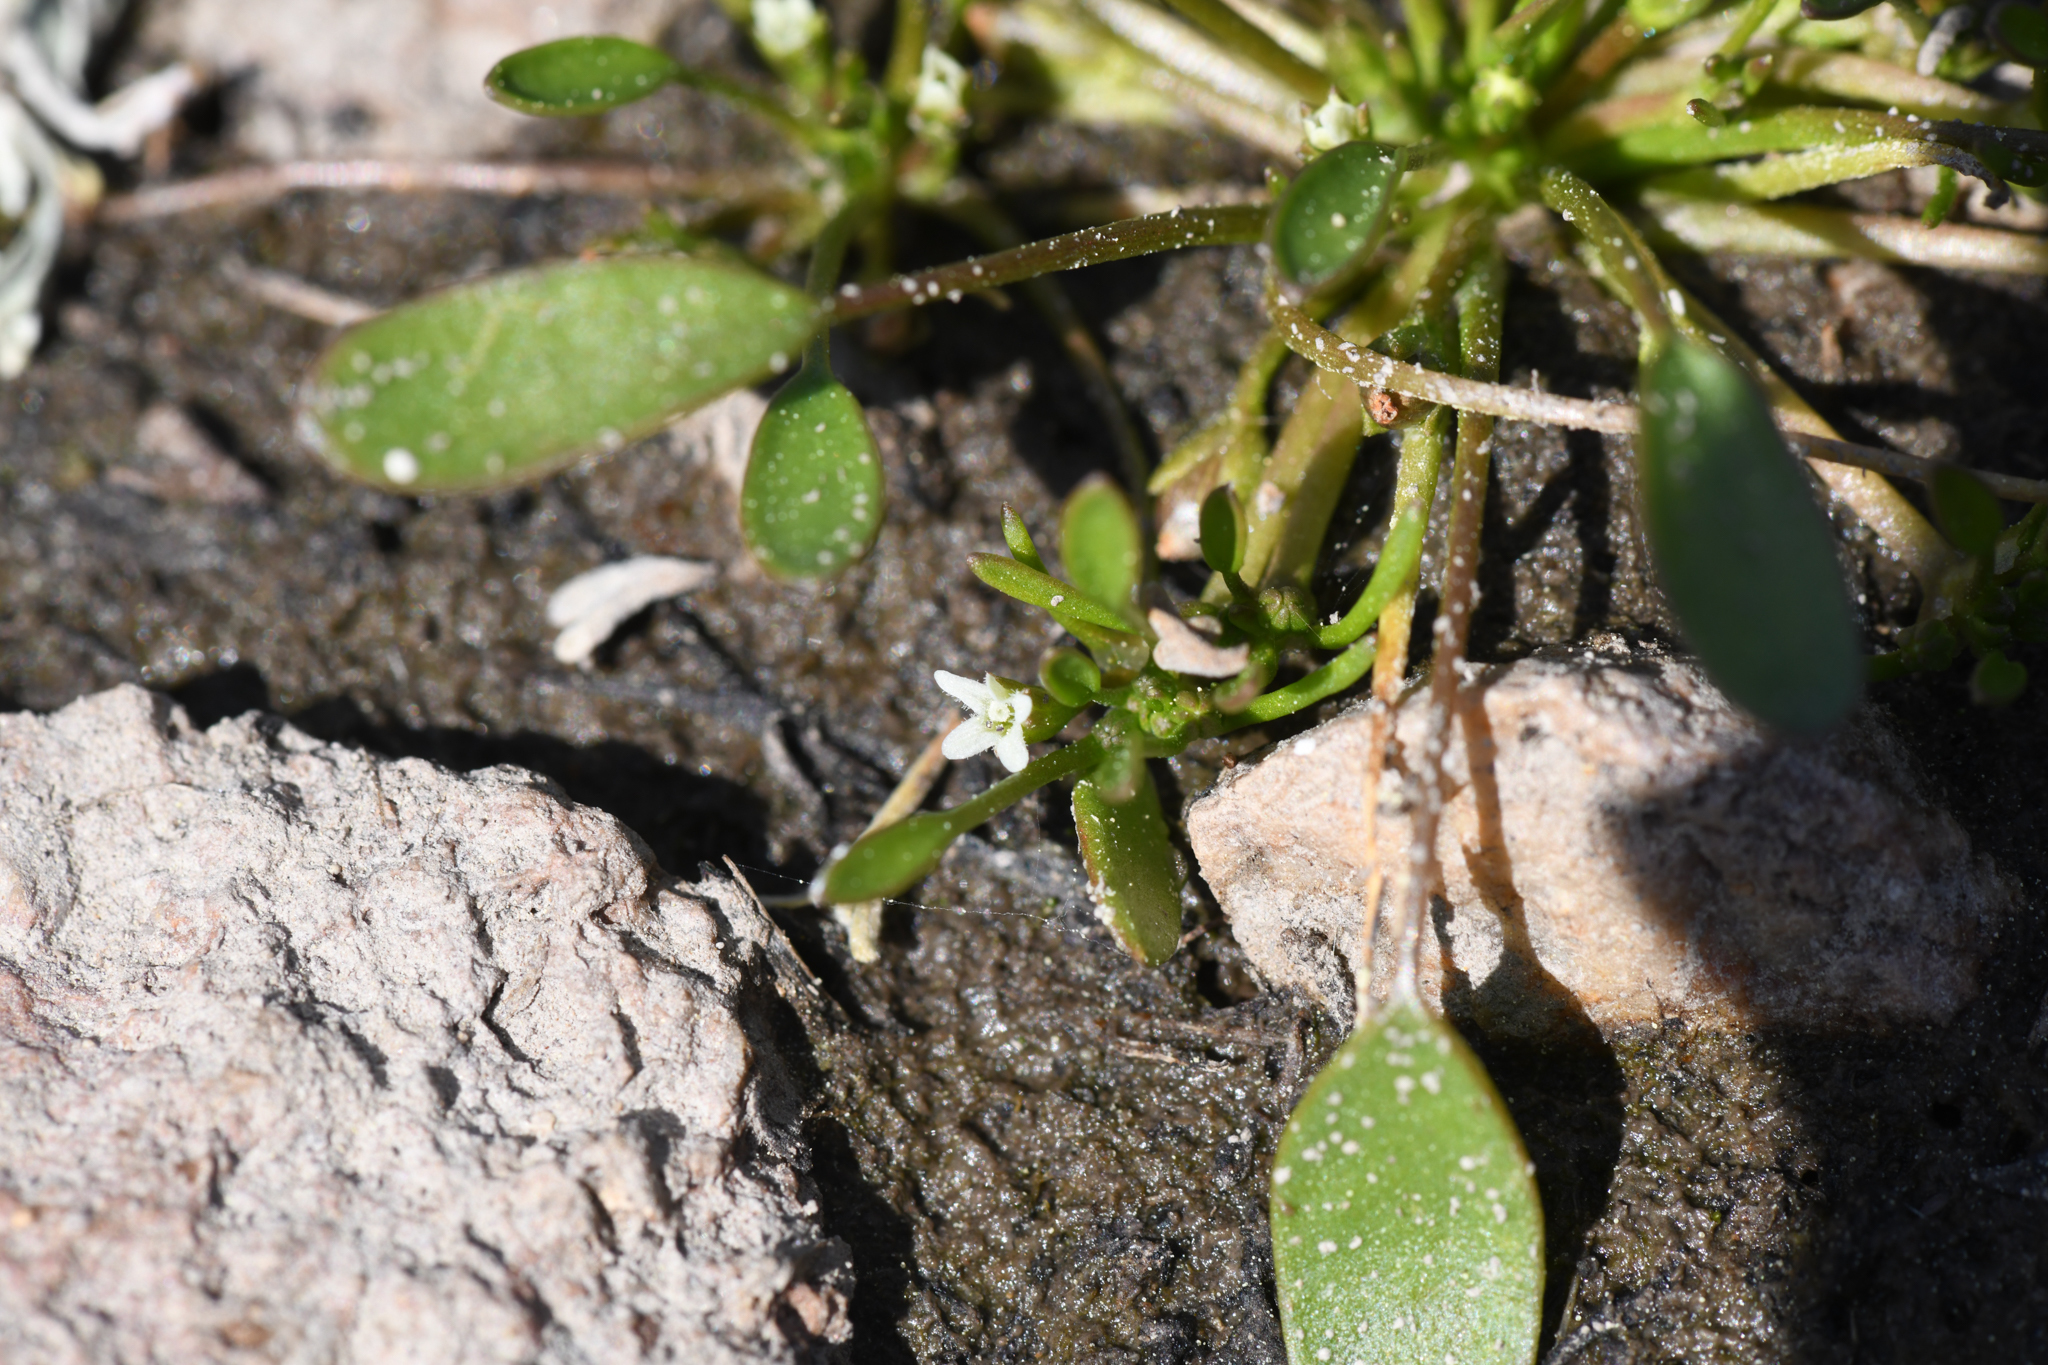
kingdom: Plantae
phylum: Tracheophyta
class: Magnoliopsida
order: Lamiales
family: Scrophulariaceae
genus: Limosella
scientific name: Limosella aquatica
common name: Mudwort
